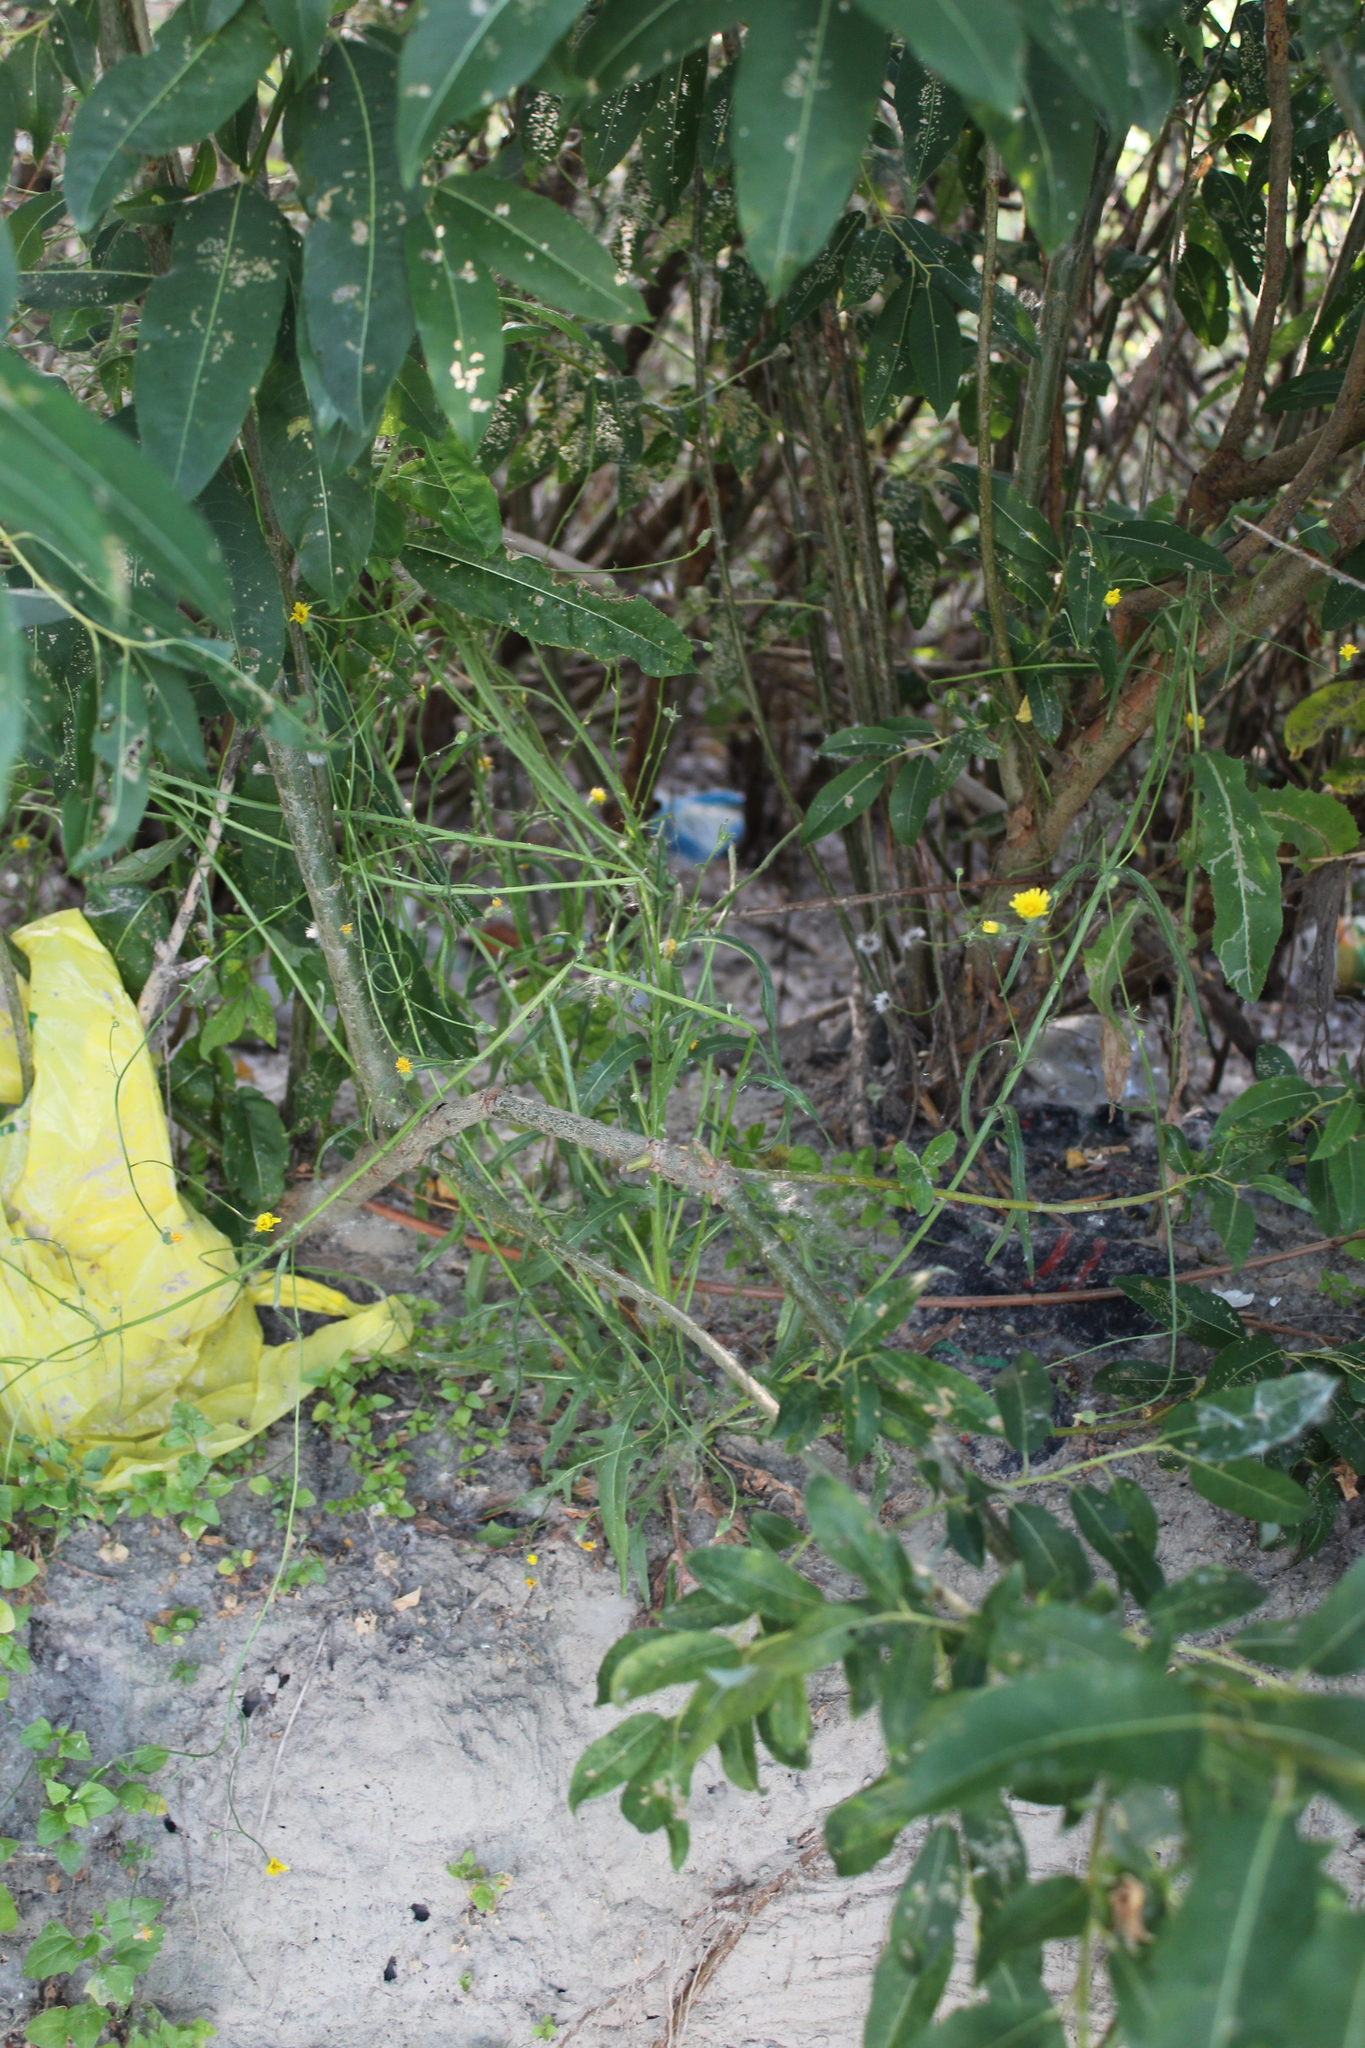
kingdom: Plantae
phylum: Tracheophyta
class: Magnoliopsida
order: Asterales
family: Asteraceae
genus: Crepis
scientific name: Crepis tectorum
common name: Narrow-leaved hawk's-beard
